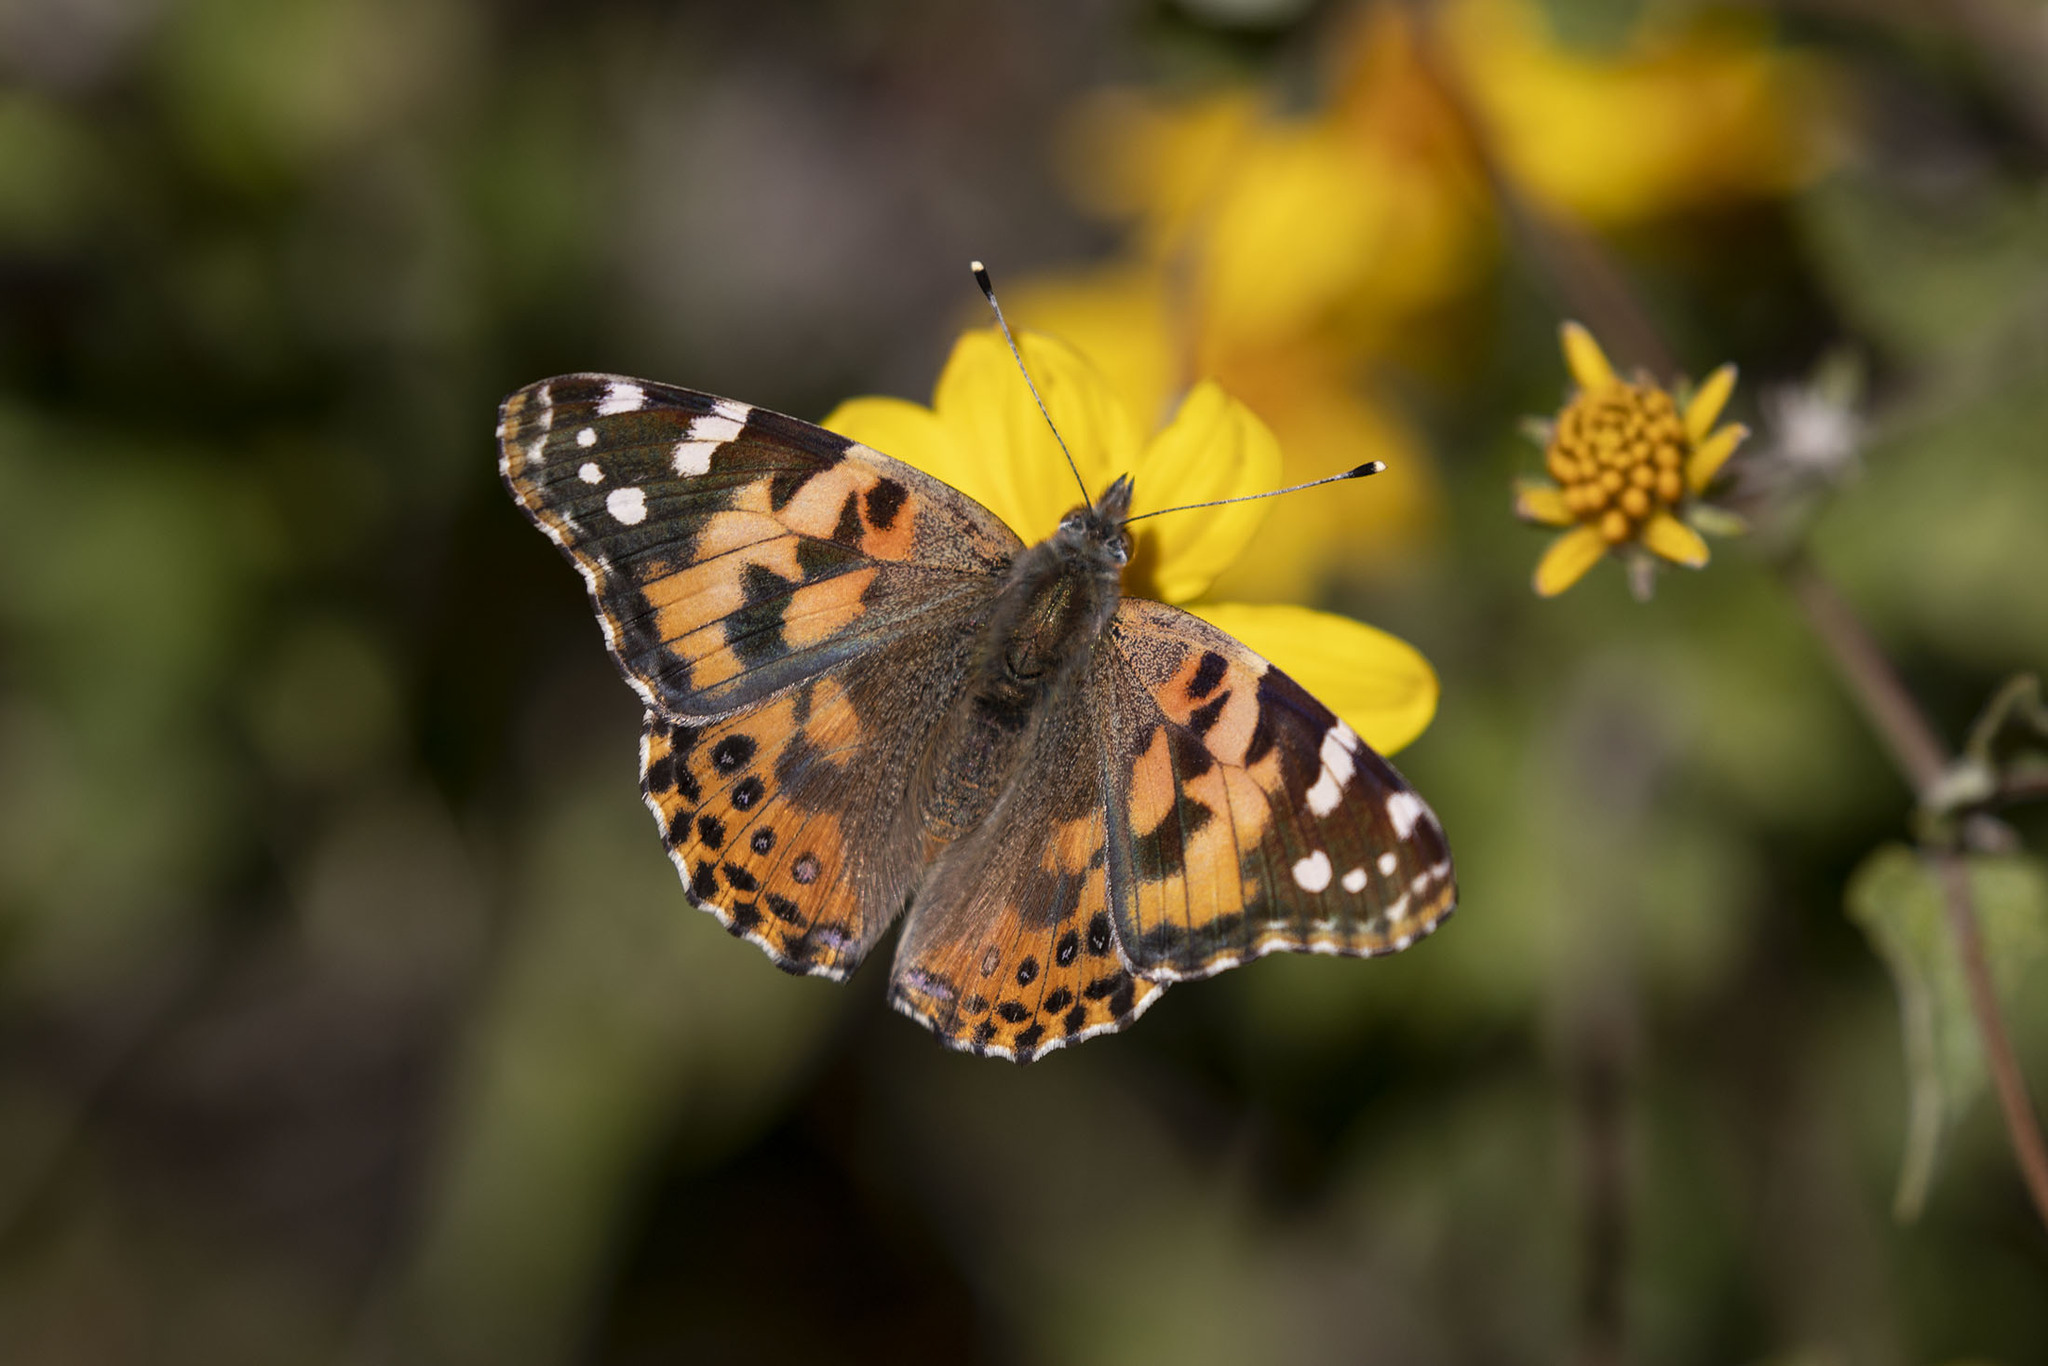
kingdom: Animalia
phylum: Arthropoda
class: Insecta
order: Lepidoptera
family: Nymphalidae
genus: Vanessa
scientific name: Vanessa cardui
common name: Painted lady
